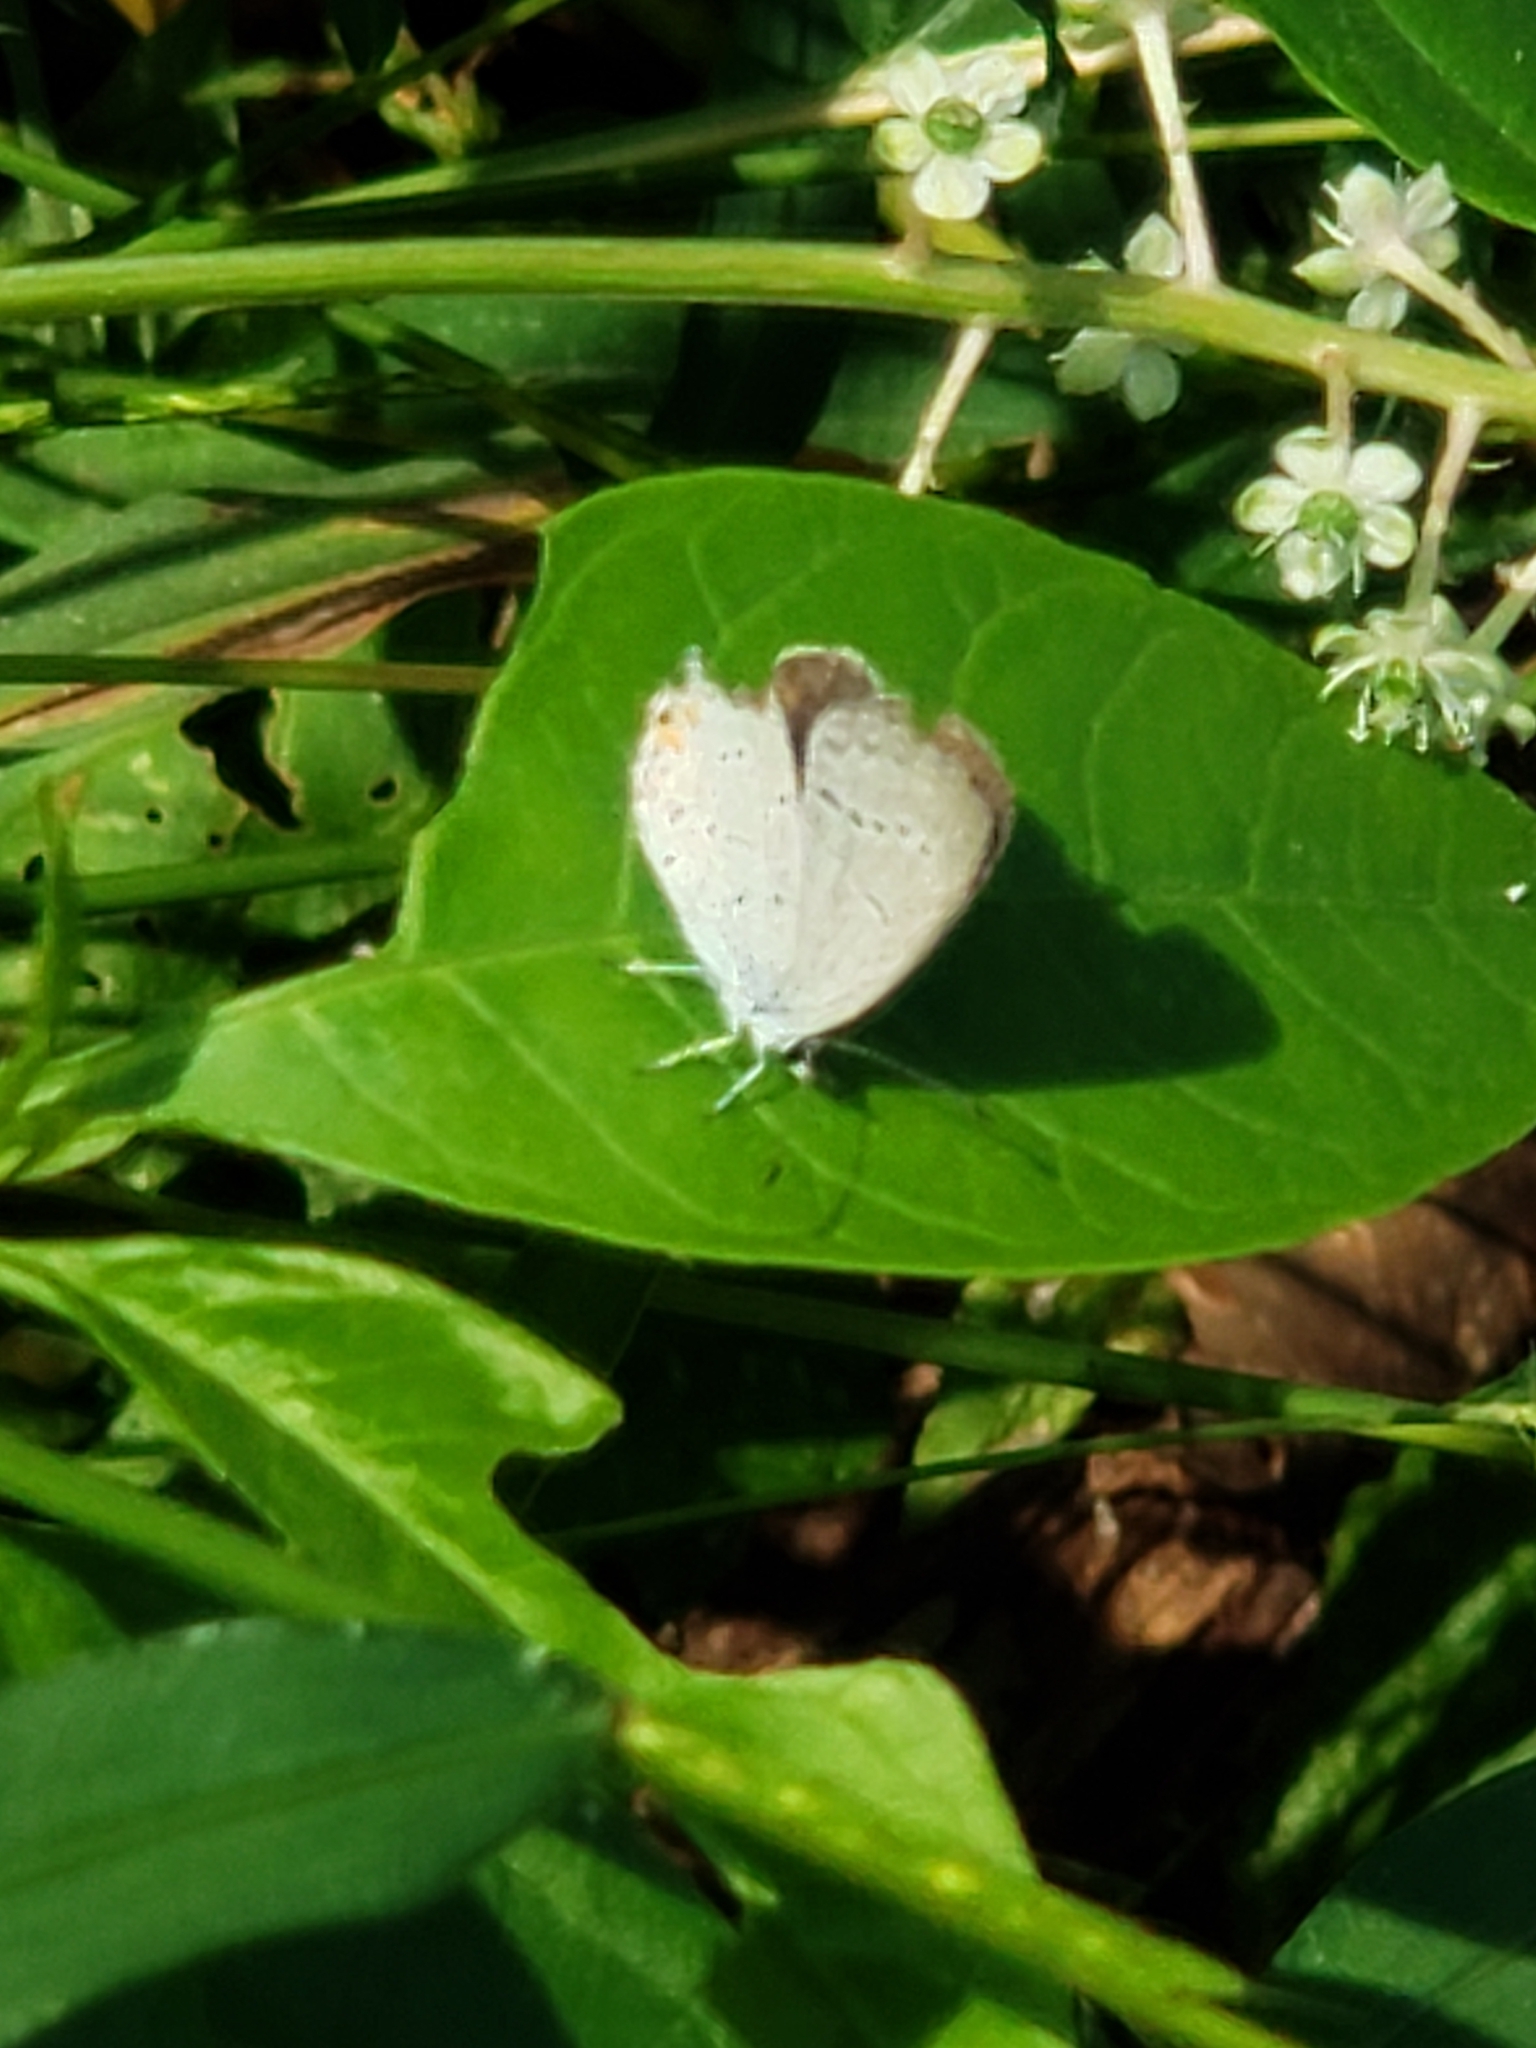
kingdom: Animalia
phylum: Arthropoda
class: Insecta
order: Lepidoptera
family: Lycaenidae
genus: Elkalyce
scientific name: Elkalyce comyntas
